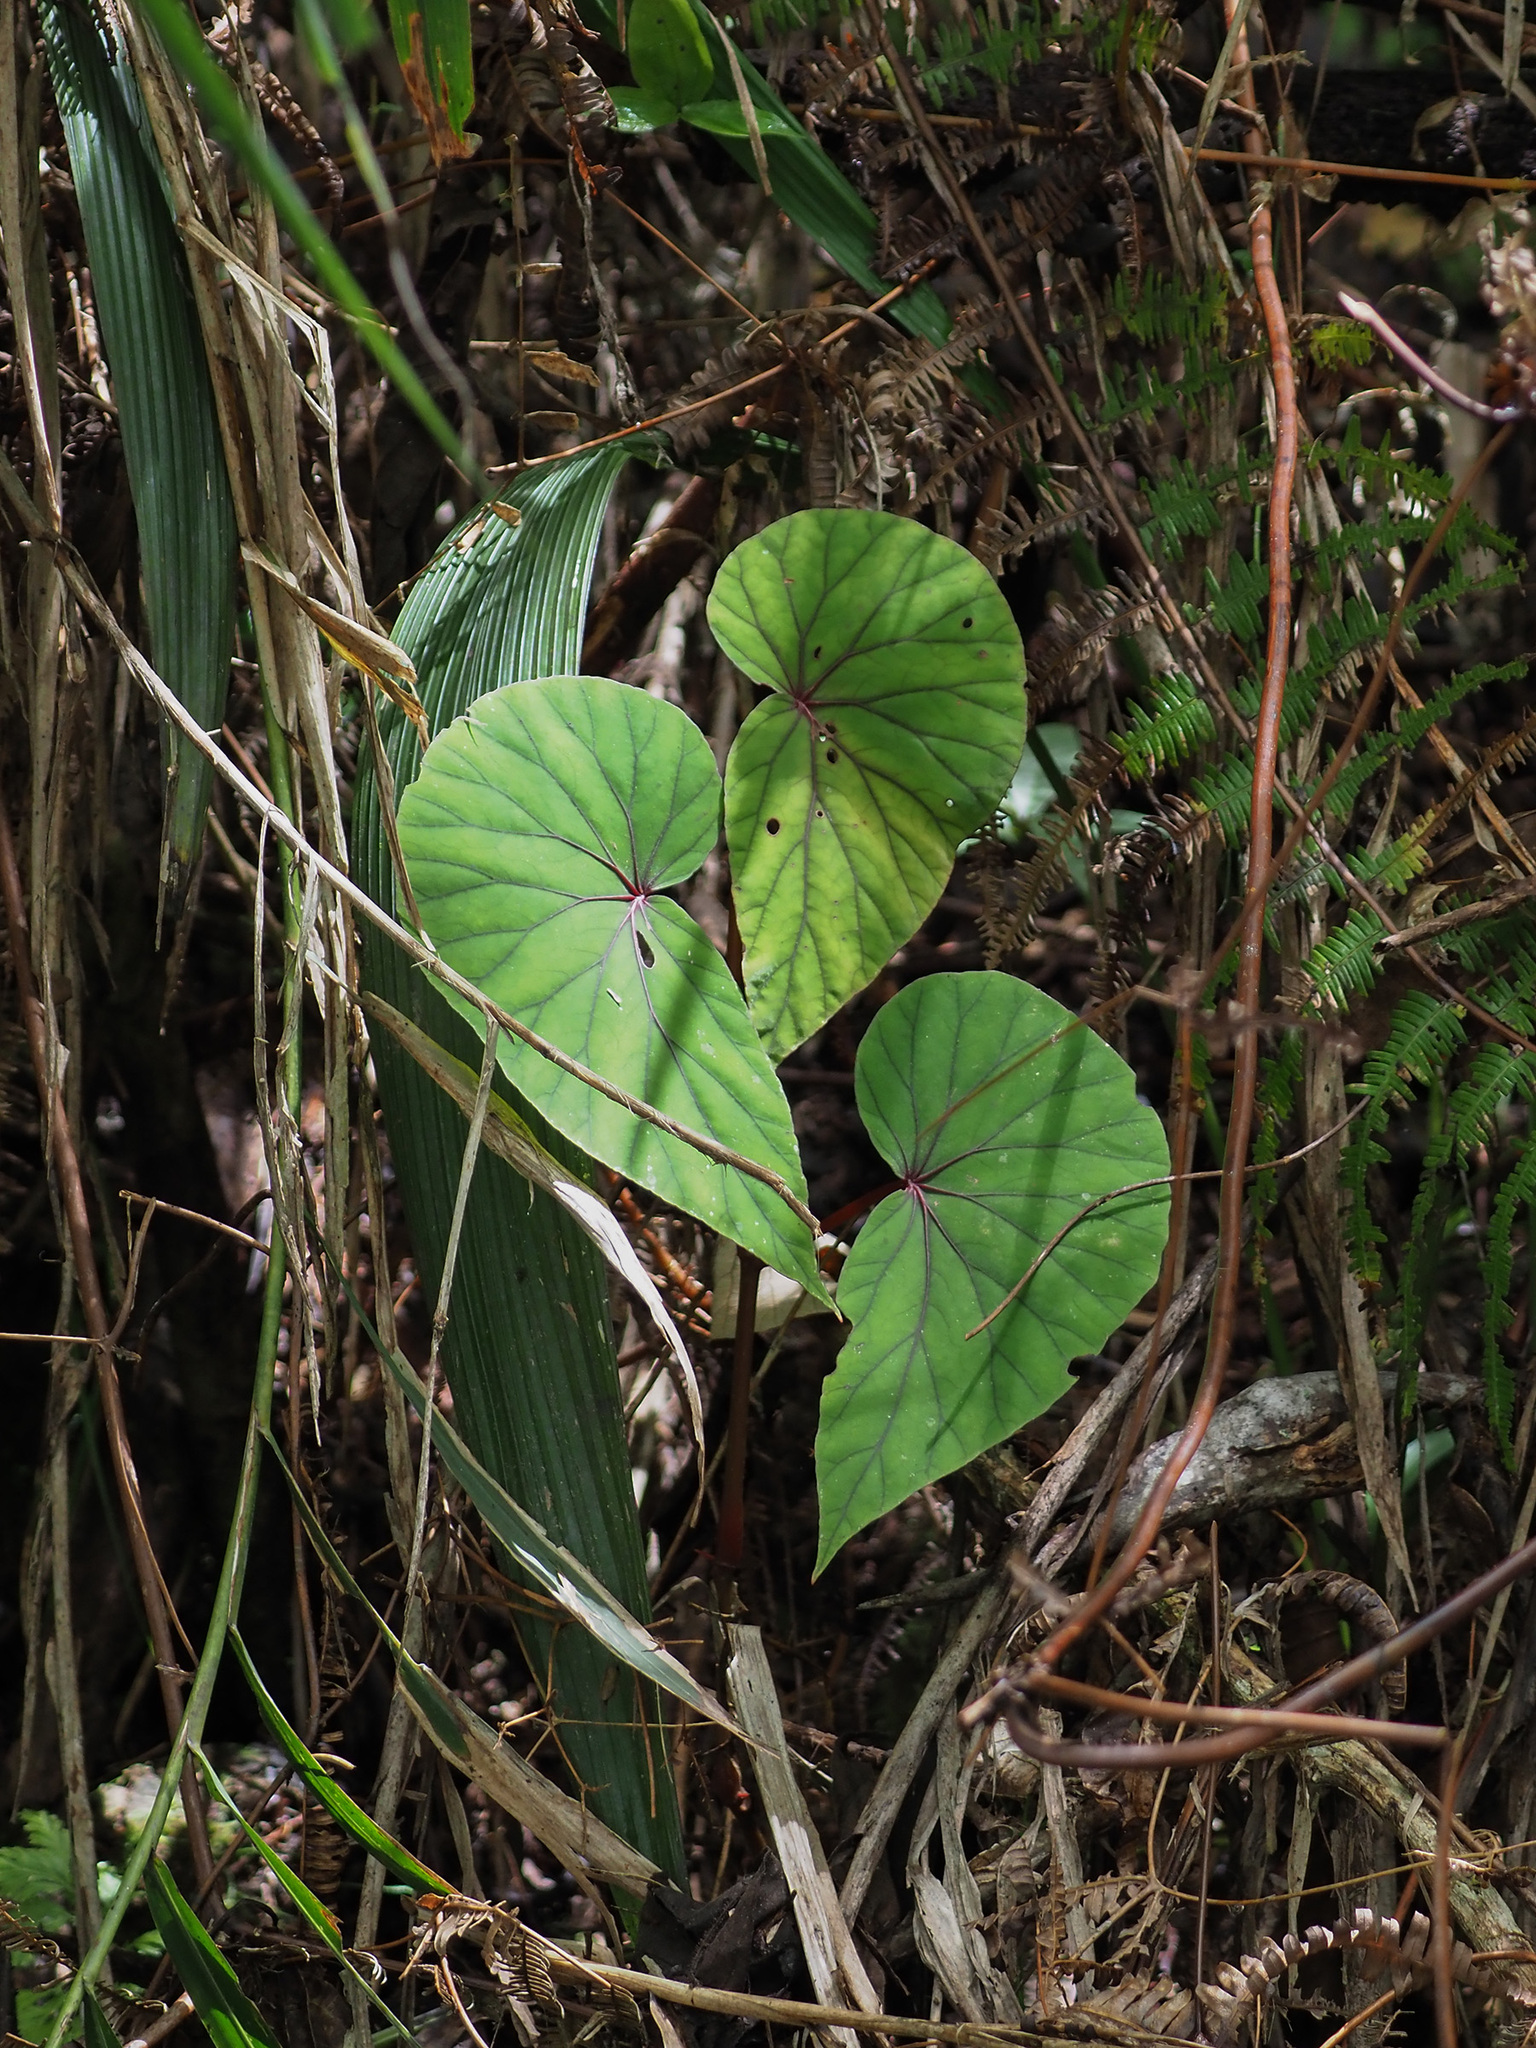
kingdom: Plantae
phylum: Tracheophyta
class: Magnoliopsida
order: Cucurbitales
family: Begoniaceae
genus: Begonia
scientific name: Begonia beryllae
